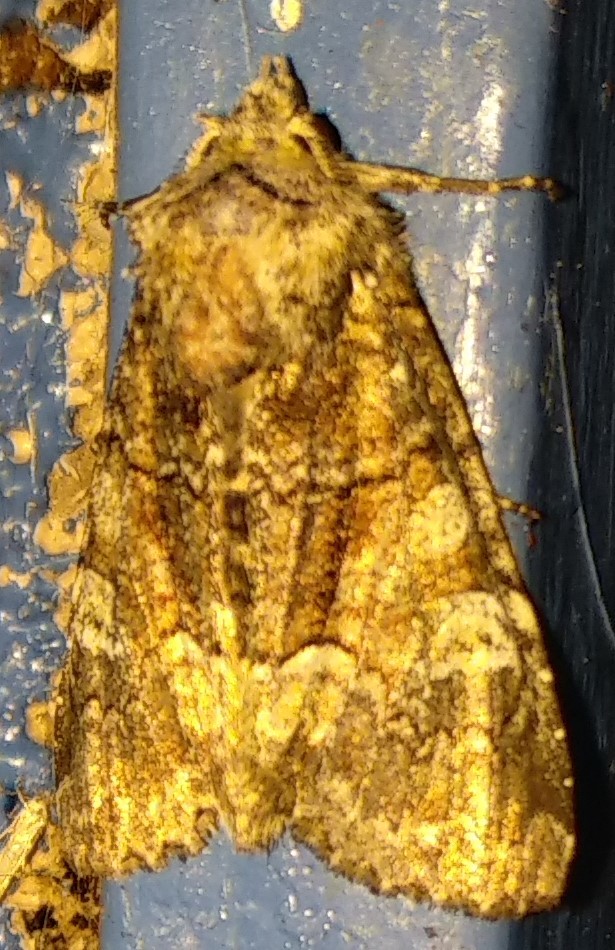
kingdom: Animalia
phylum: Arthropoda
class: Insecta
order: Lepidoptera
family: Noctuidae
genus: Apamea
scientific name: Apamea amputatrix
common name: Yellow-headed cutworm moth
